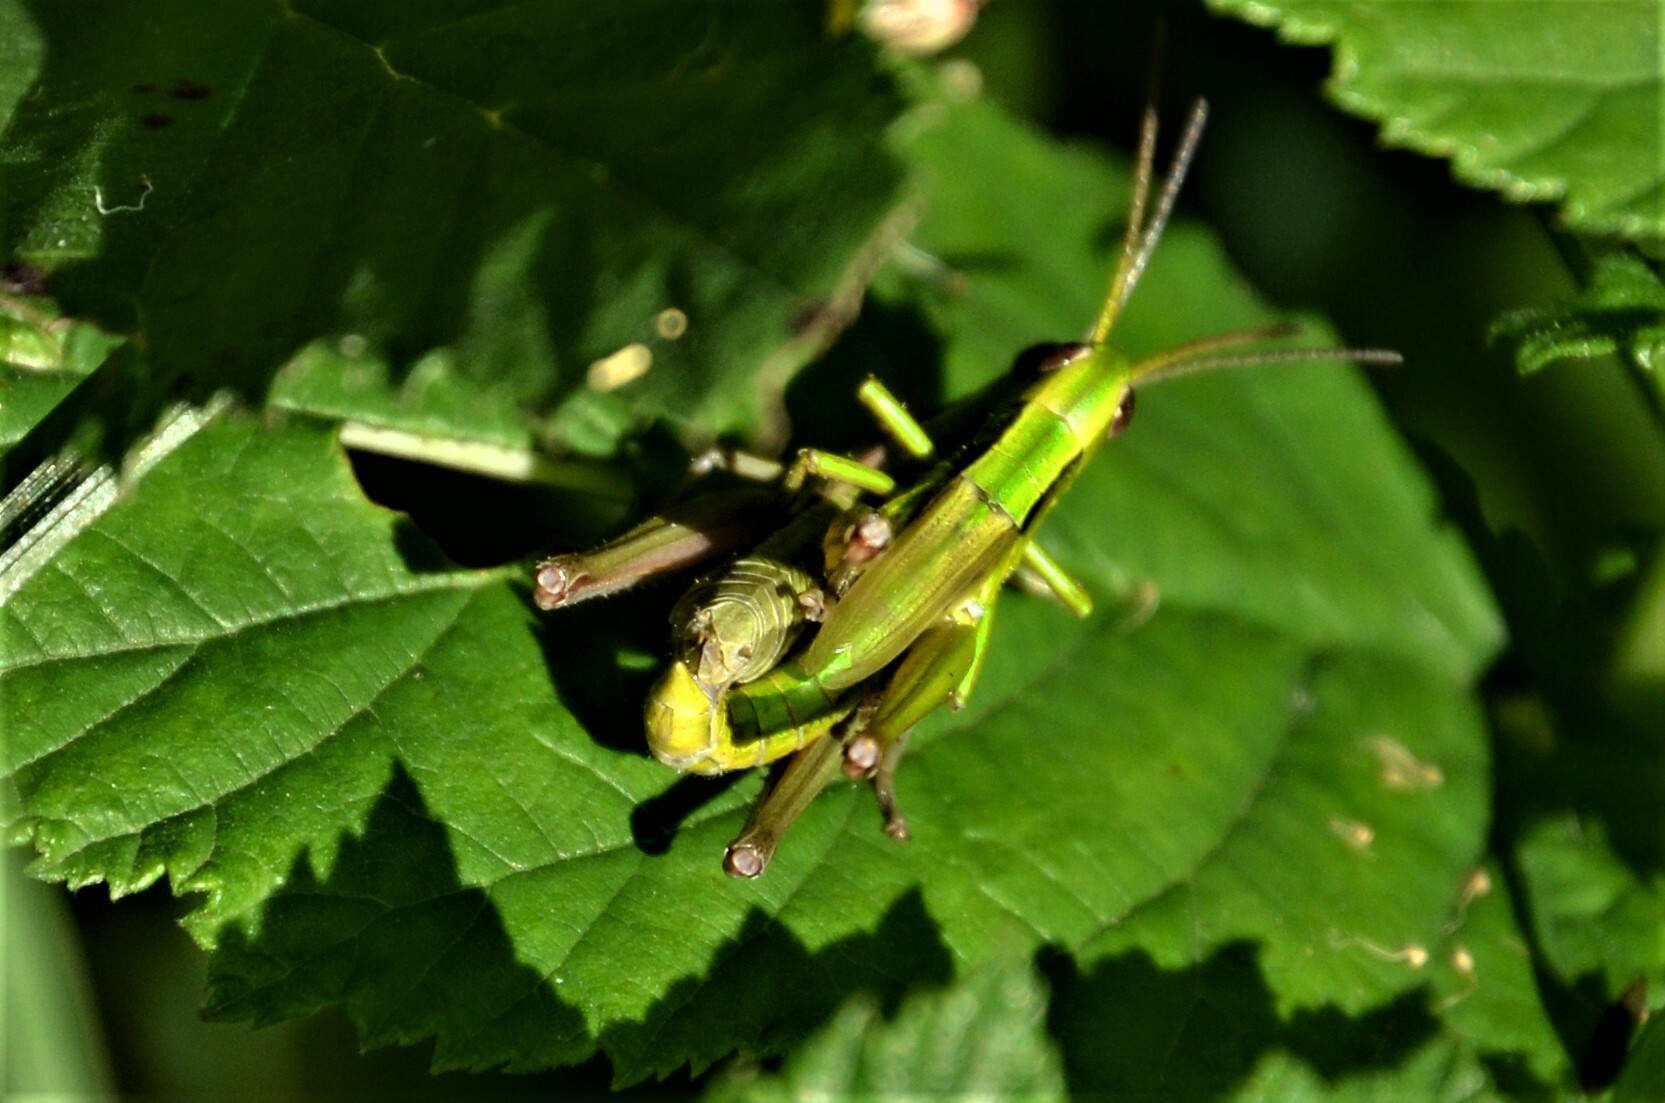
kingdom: Animalia
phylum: Arthropoda
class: Insecta
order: Orthoptera
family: Acrididae
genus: Euthystira
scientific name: Euthystira brachyptera
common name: Small gold grasshopper
